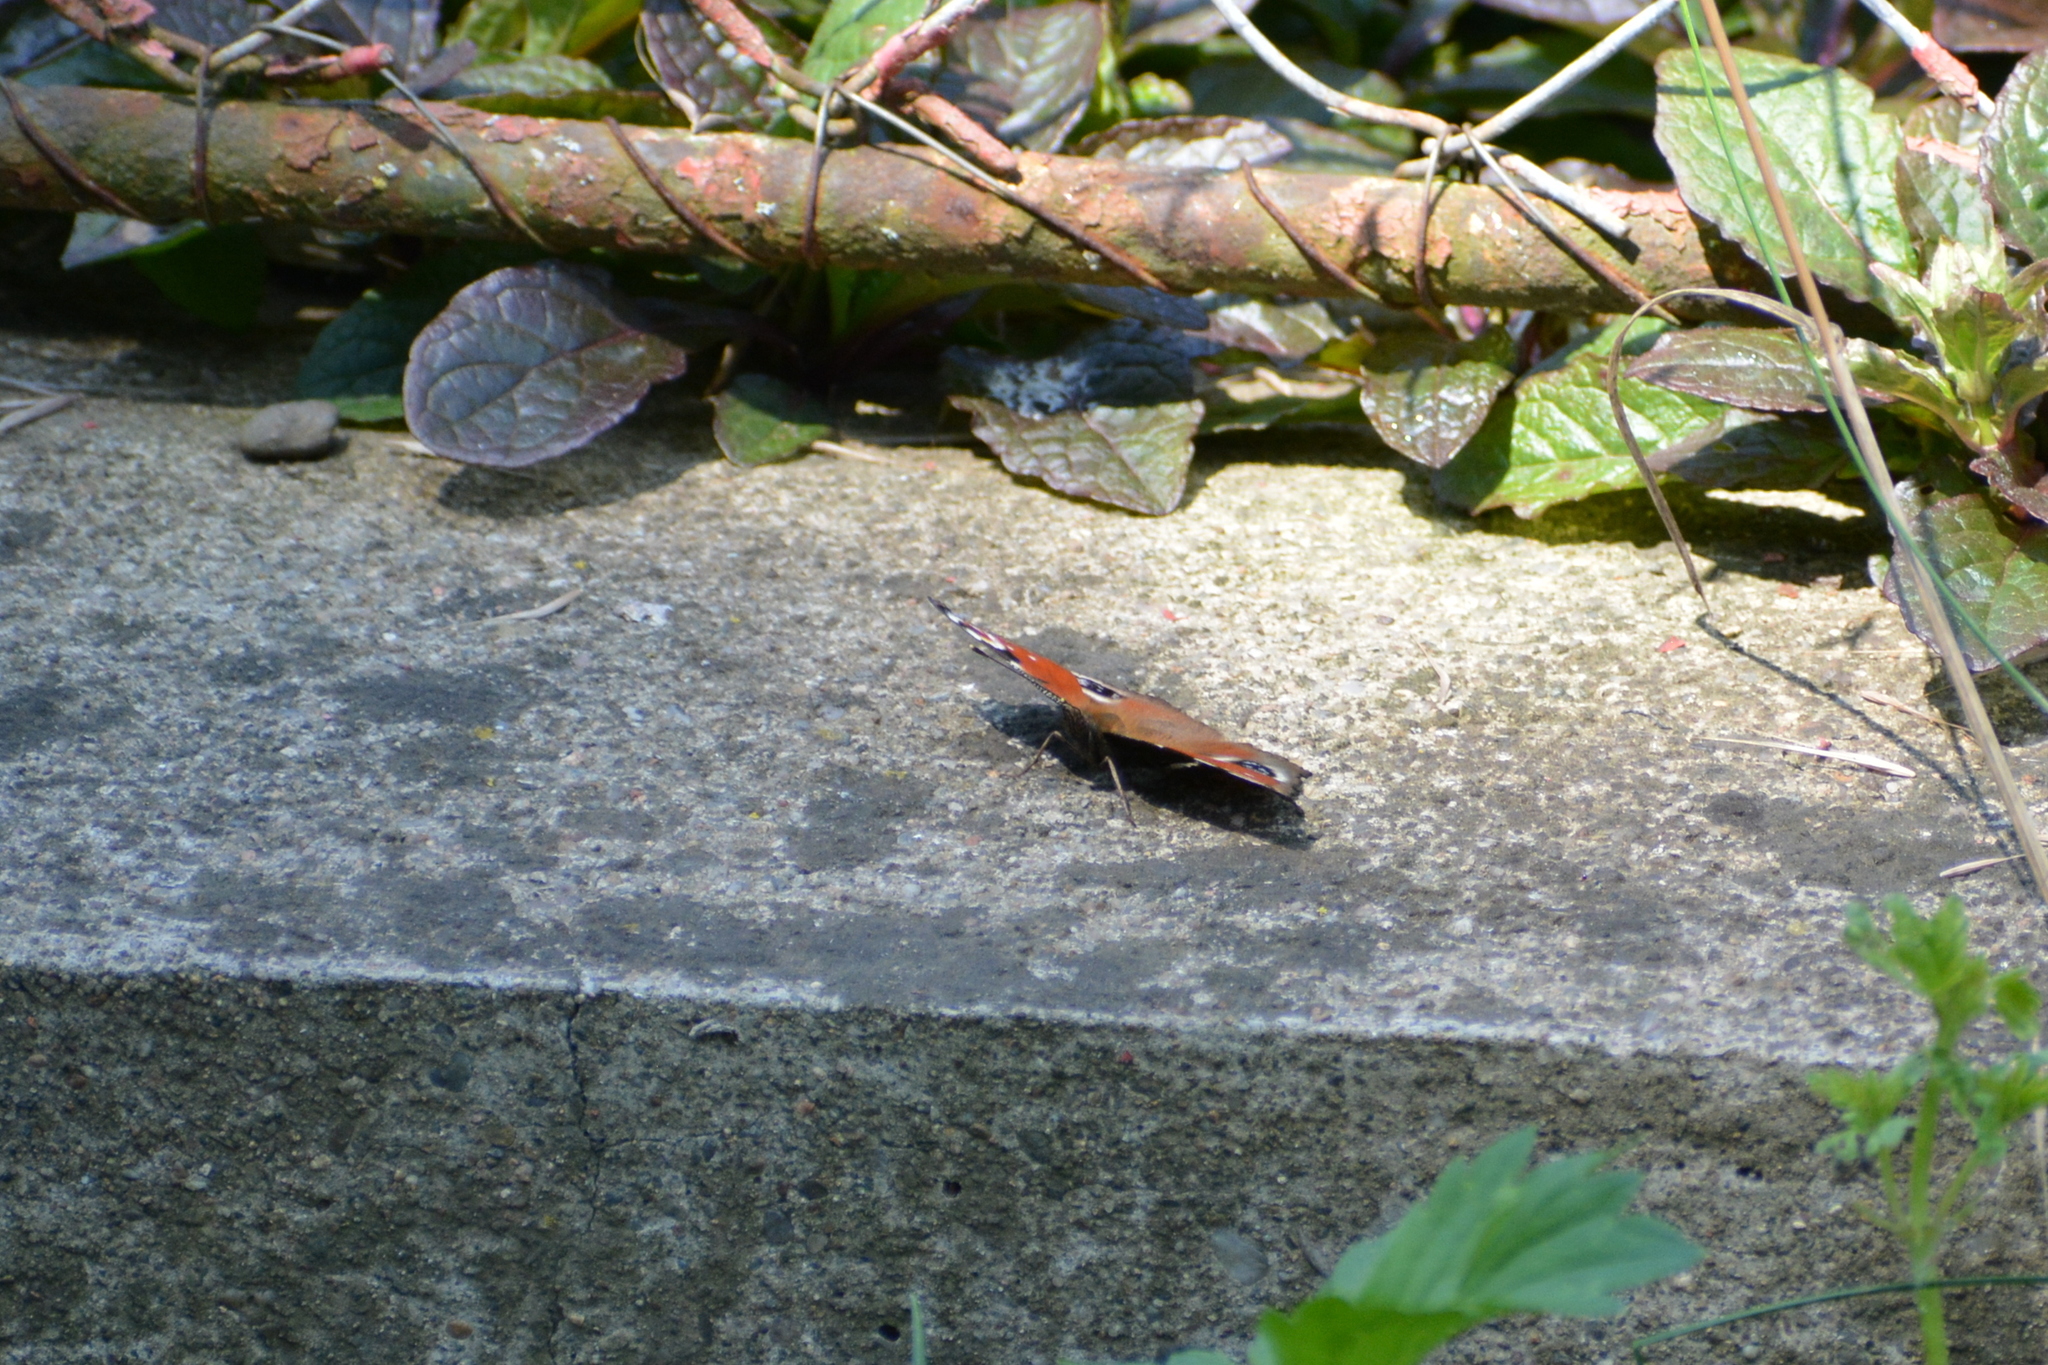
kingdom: Animalia
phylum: Arthropoda
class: Insecta
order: Lepidoptera
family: Nymphalidae
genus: Aglais
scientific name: Aglais io
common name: Peacock
